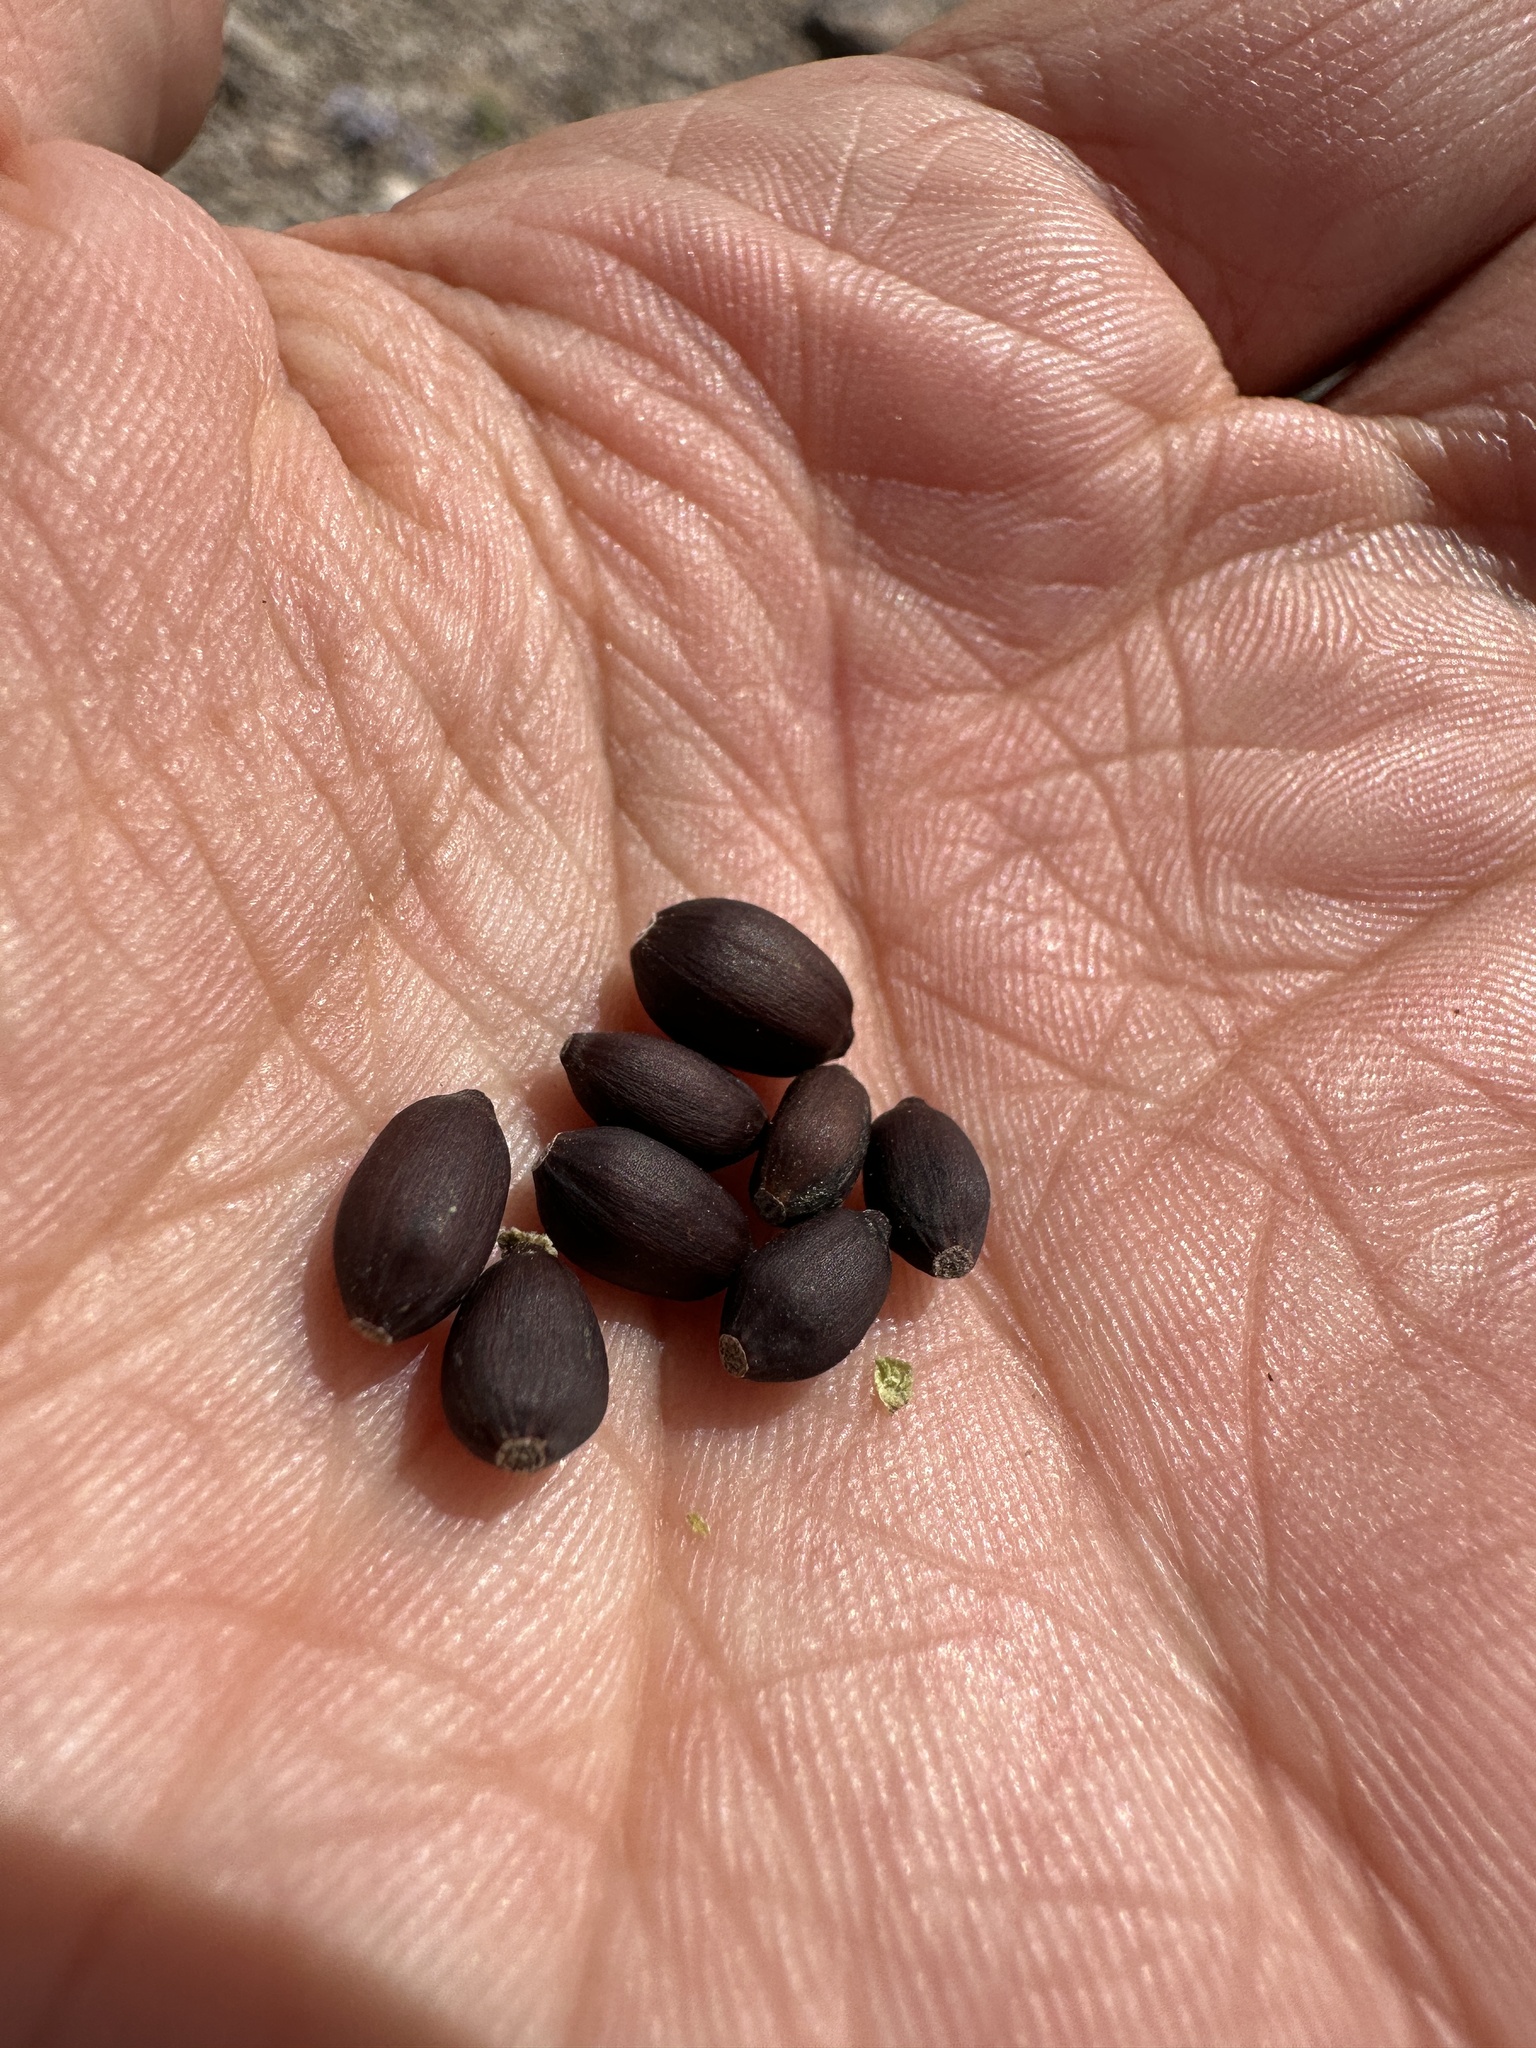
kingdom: Plantae
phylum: Tracheophyta
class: Magnoliopsida
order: Caryophyllales
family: Nyctaginaceae
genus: Mirabilis
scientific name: Mirabilis pudica
